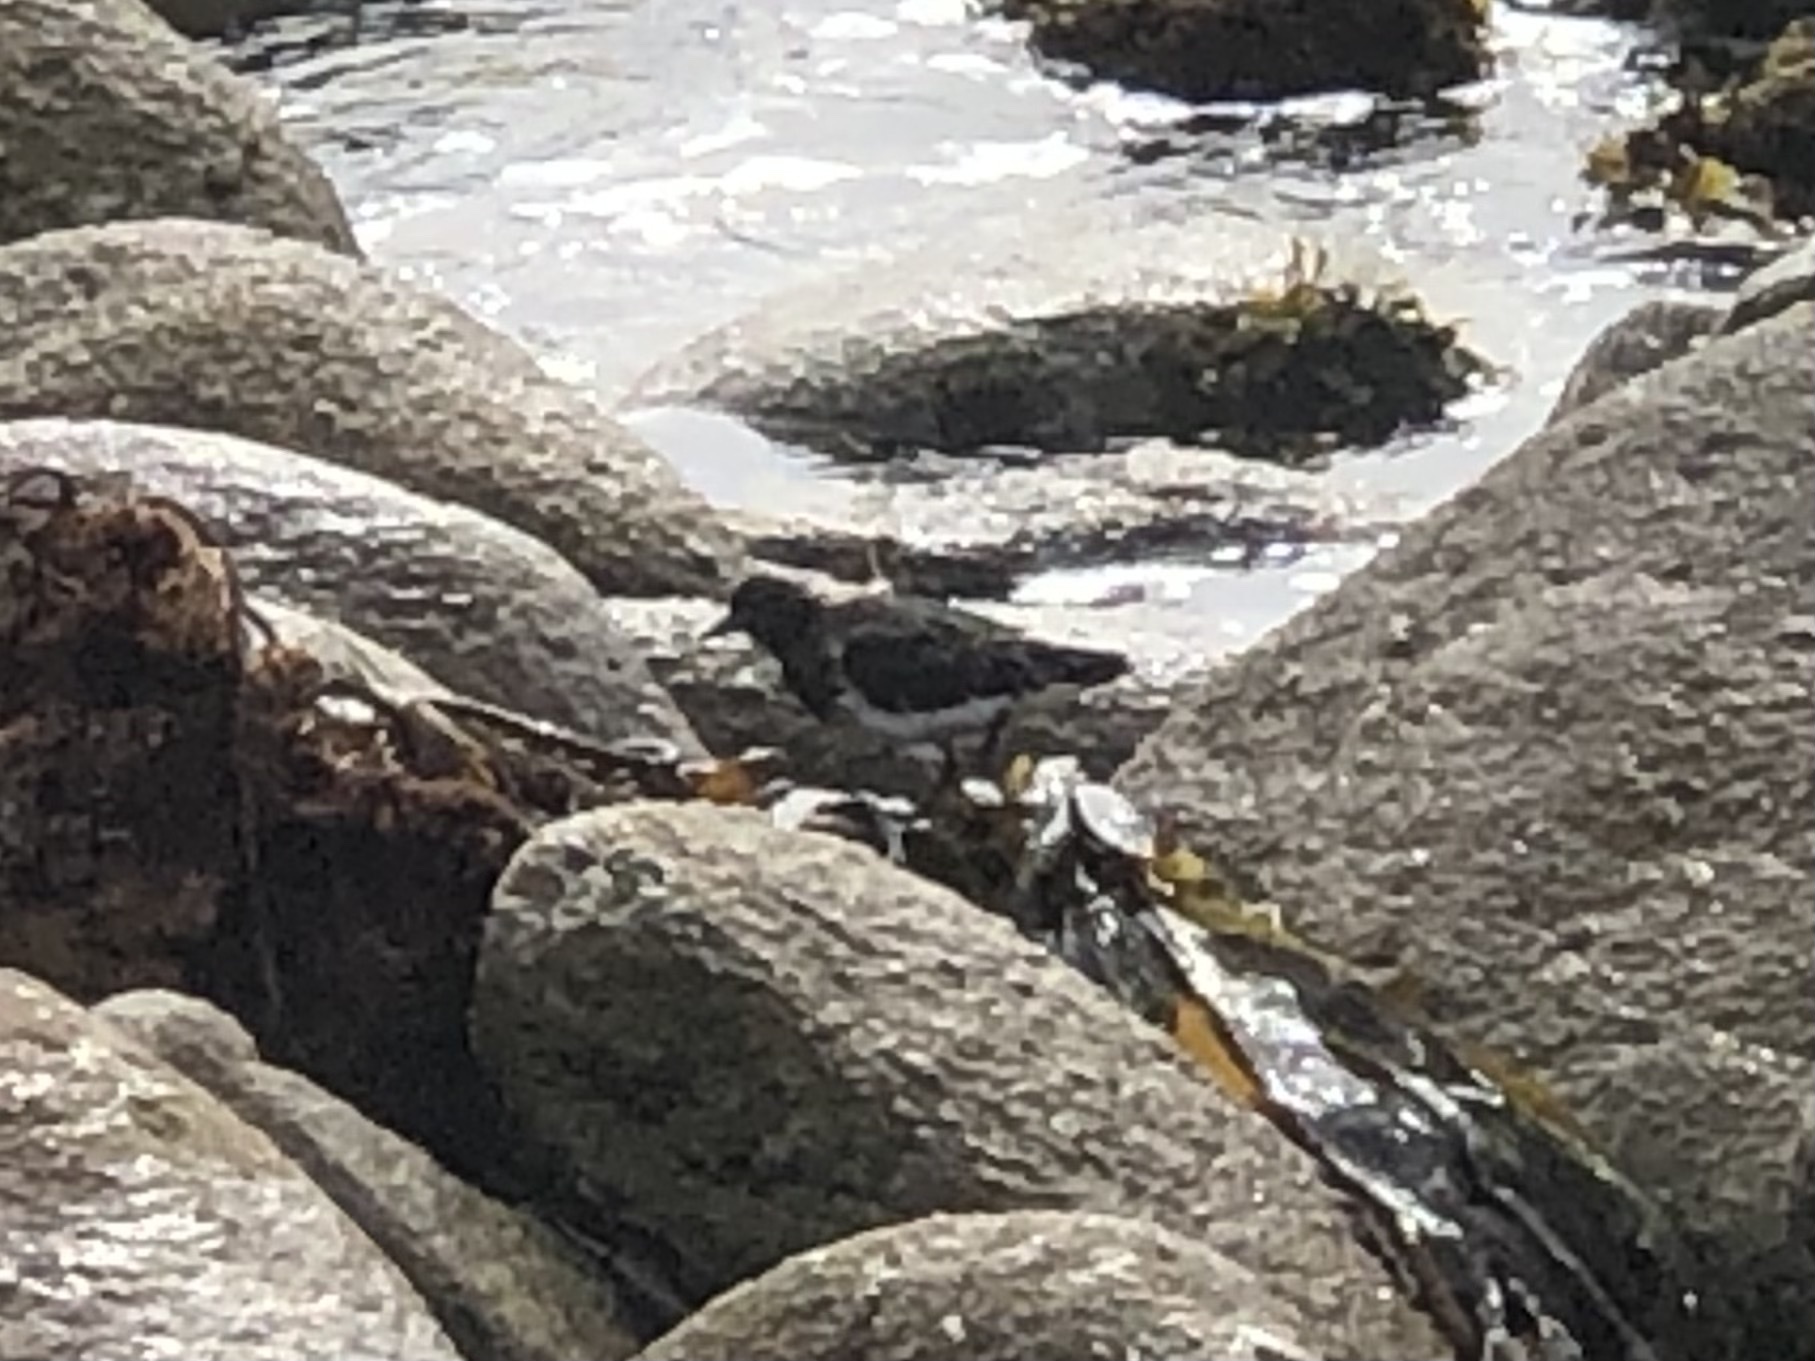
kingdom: Animalia
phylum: Chordata
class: Aves
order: Charadriiformes
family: Scolopacidae
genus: Arenaria
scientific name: Arenaria melanocephala
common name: Black turnstone
